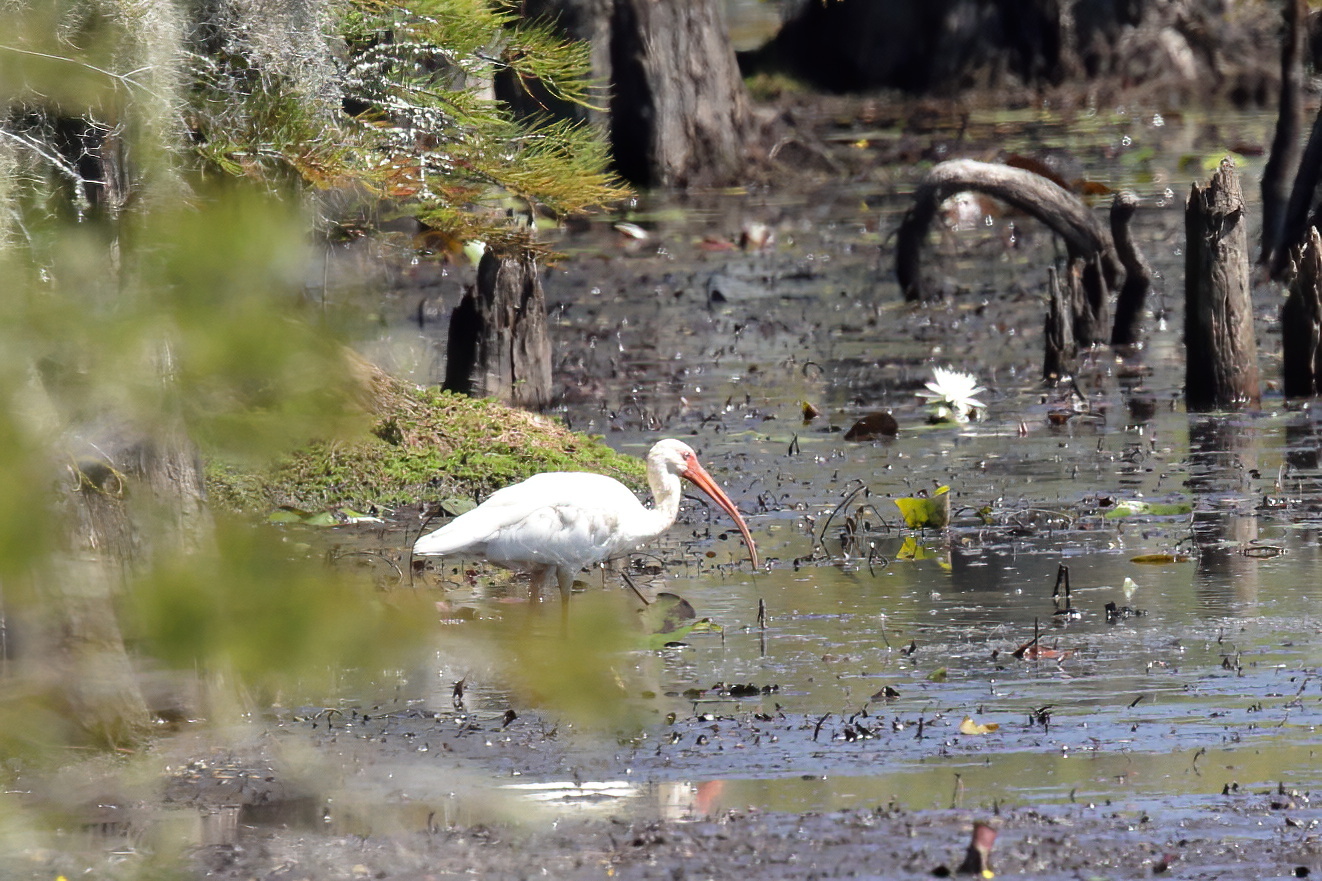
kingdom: Animalia
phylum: Chordata
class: Aves
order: Pelecaniformes
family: Threskiornithidae
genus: Eudocimus
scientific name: Eudocimus albus
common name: White ibis
